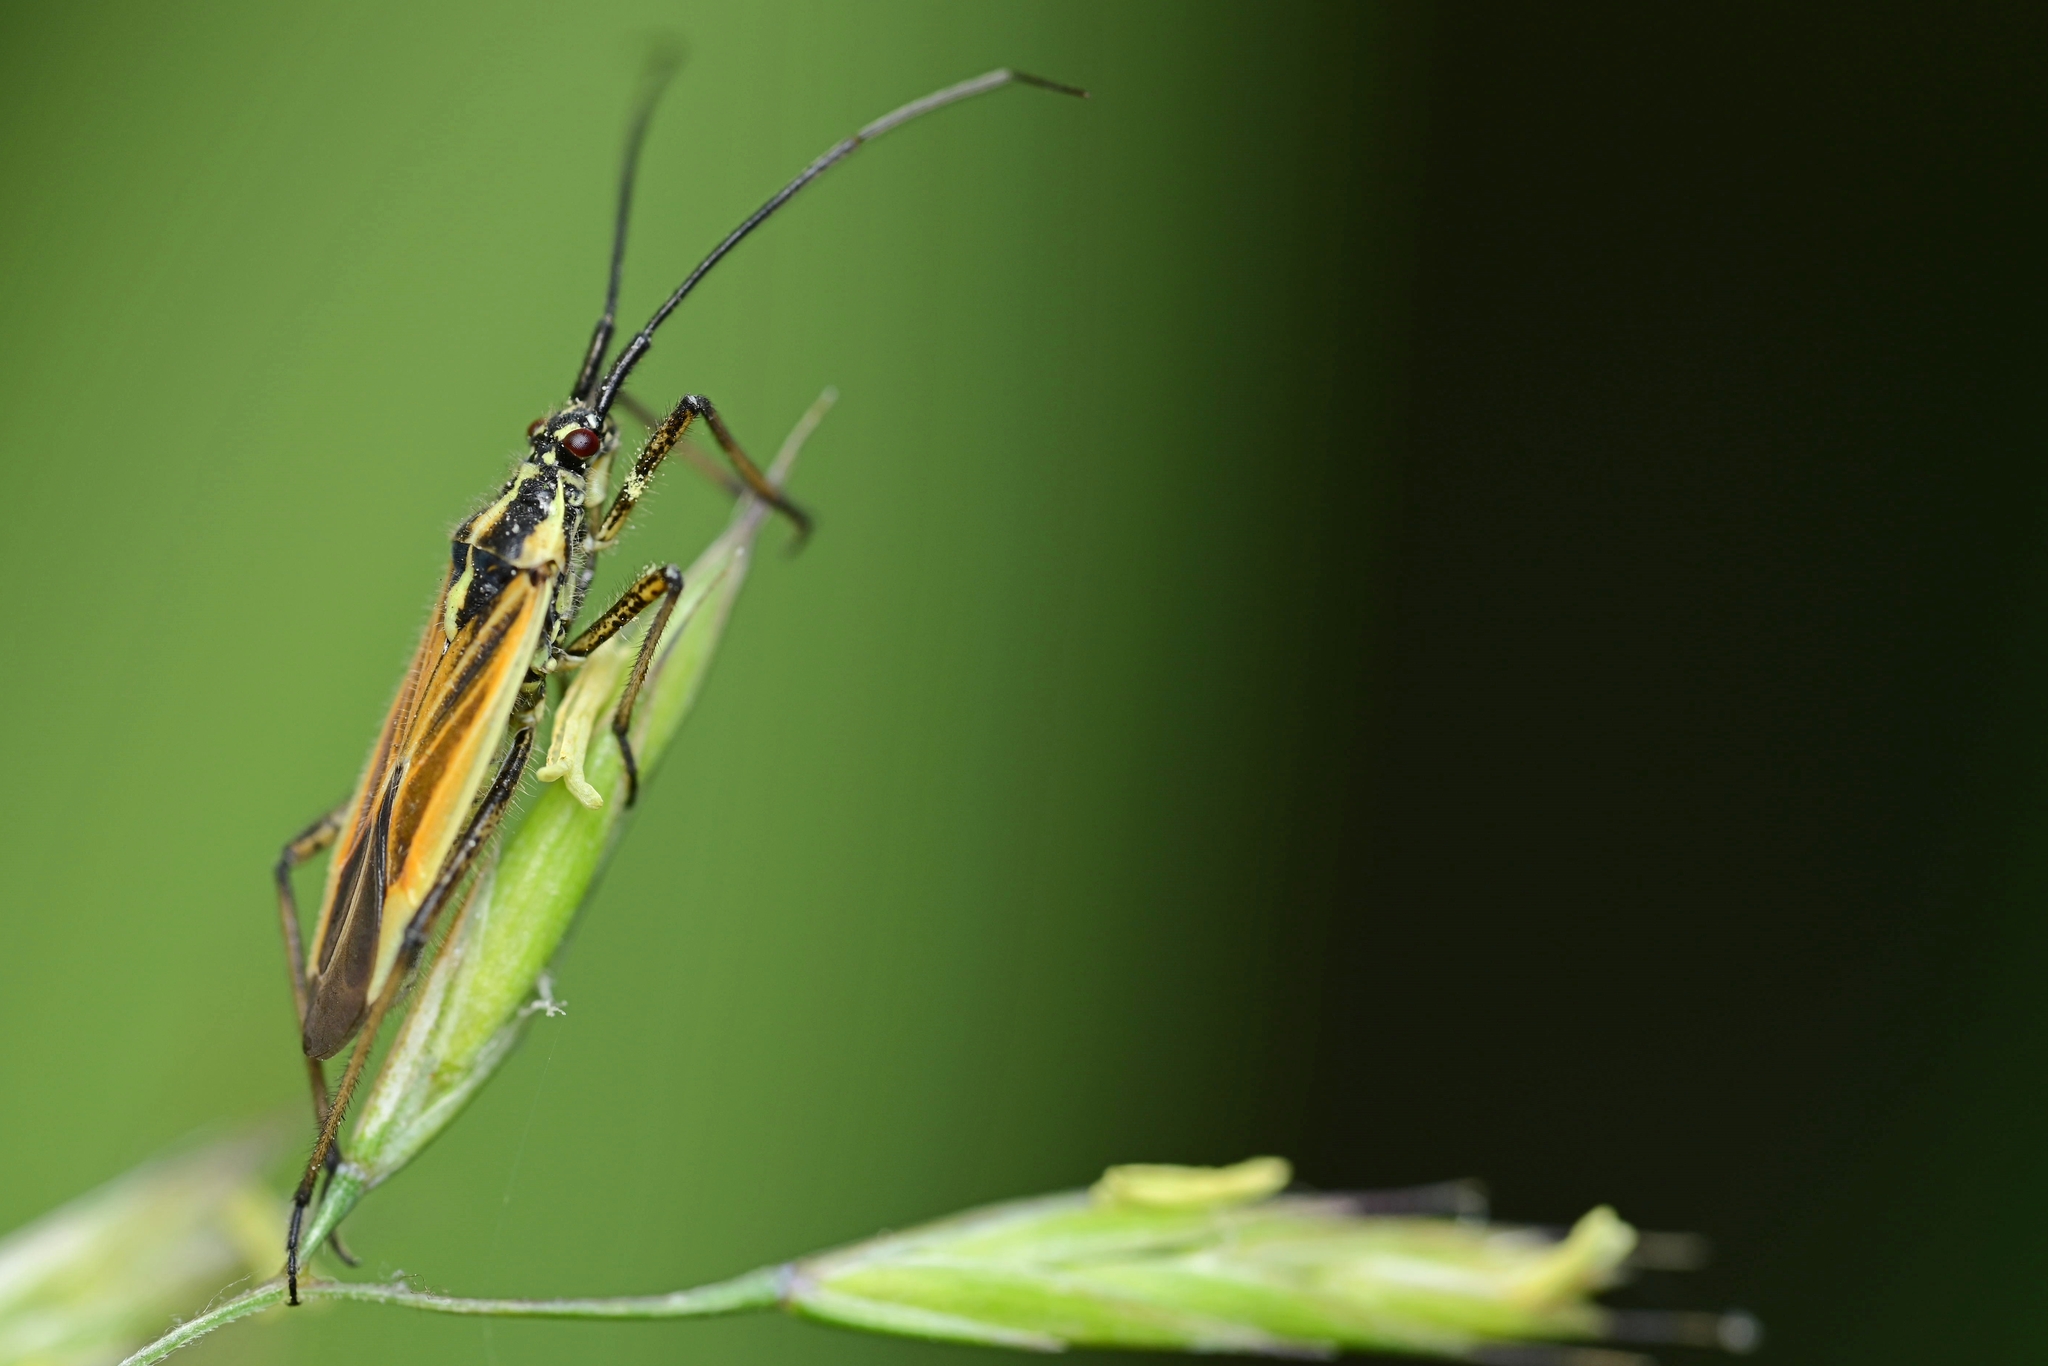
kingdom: Animalia
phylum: Arthropoda
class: Insecta
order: Hemiptera
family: Miridae
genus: Leptopterna
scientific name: Leptopterna dolabrata
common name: Meadow plant bug
